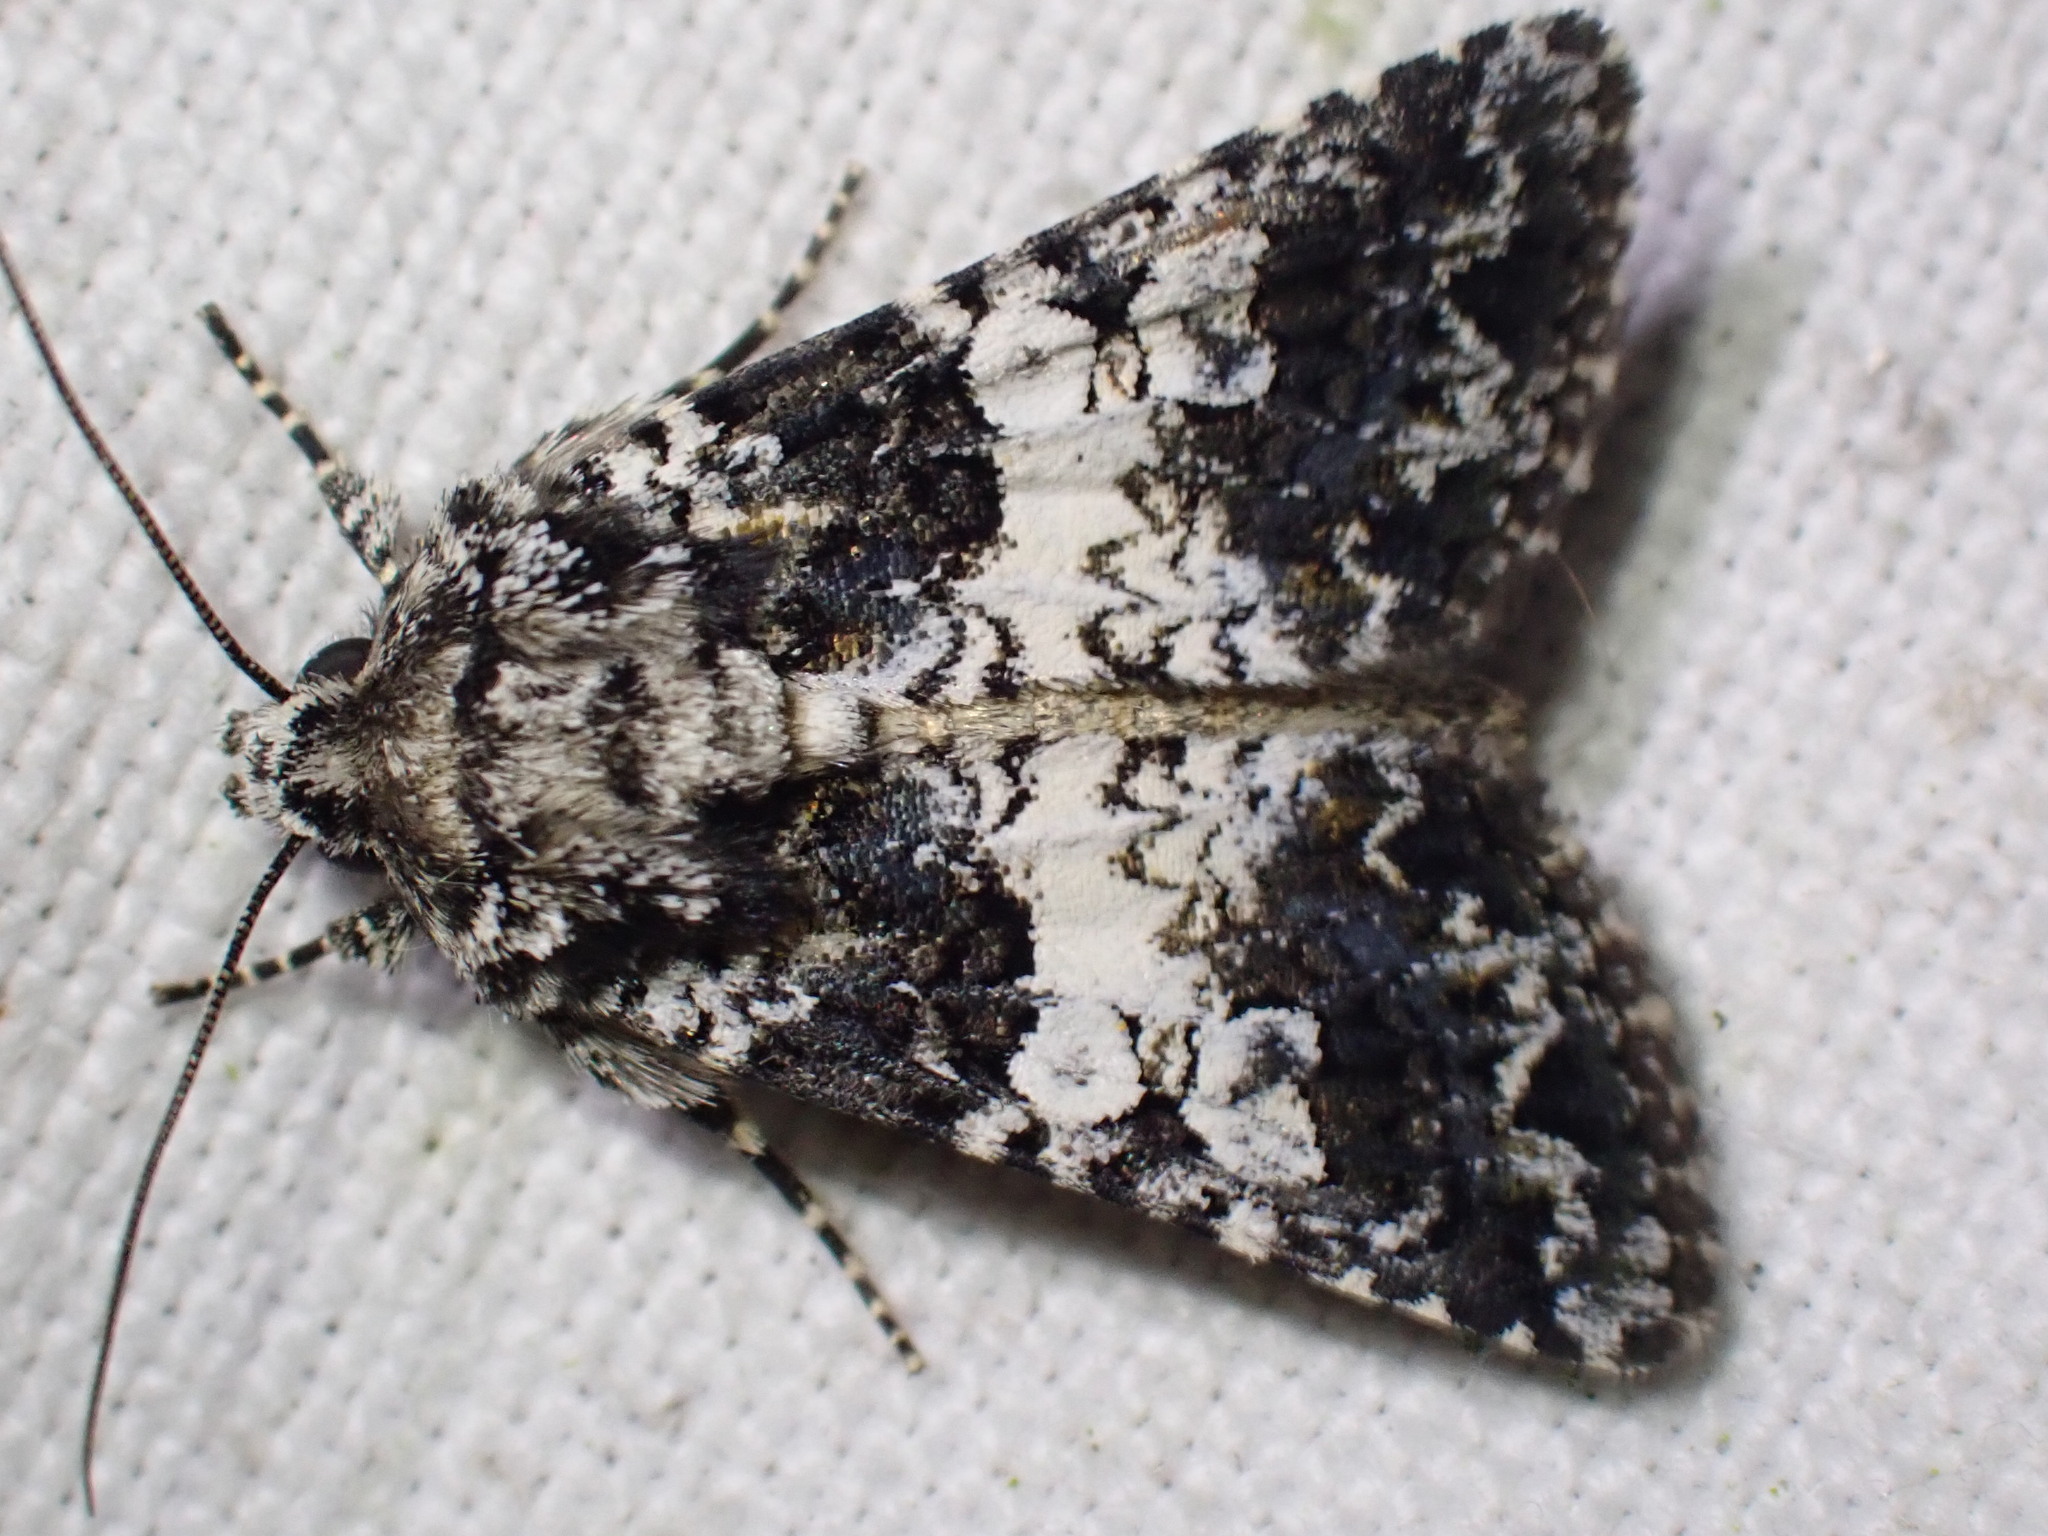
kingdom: Animalia
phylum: Arthropoda
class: Insecta
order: Lepidoptera
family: Noctuidae
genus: Hadena
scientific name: Hadena compta
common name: Varied coronet
